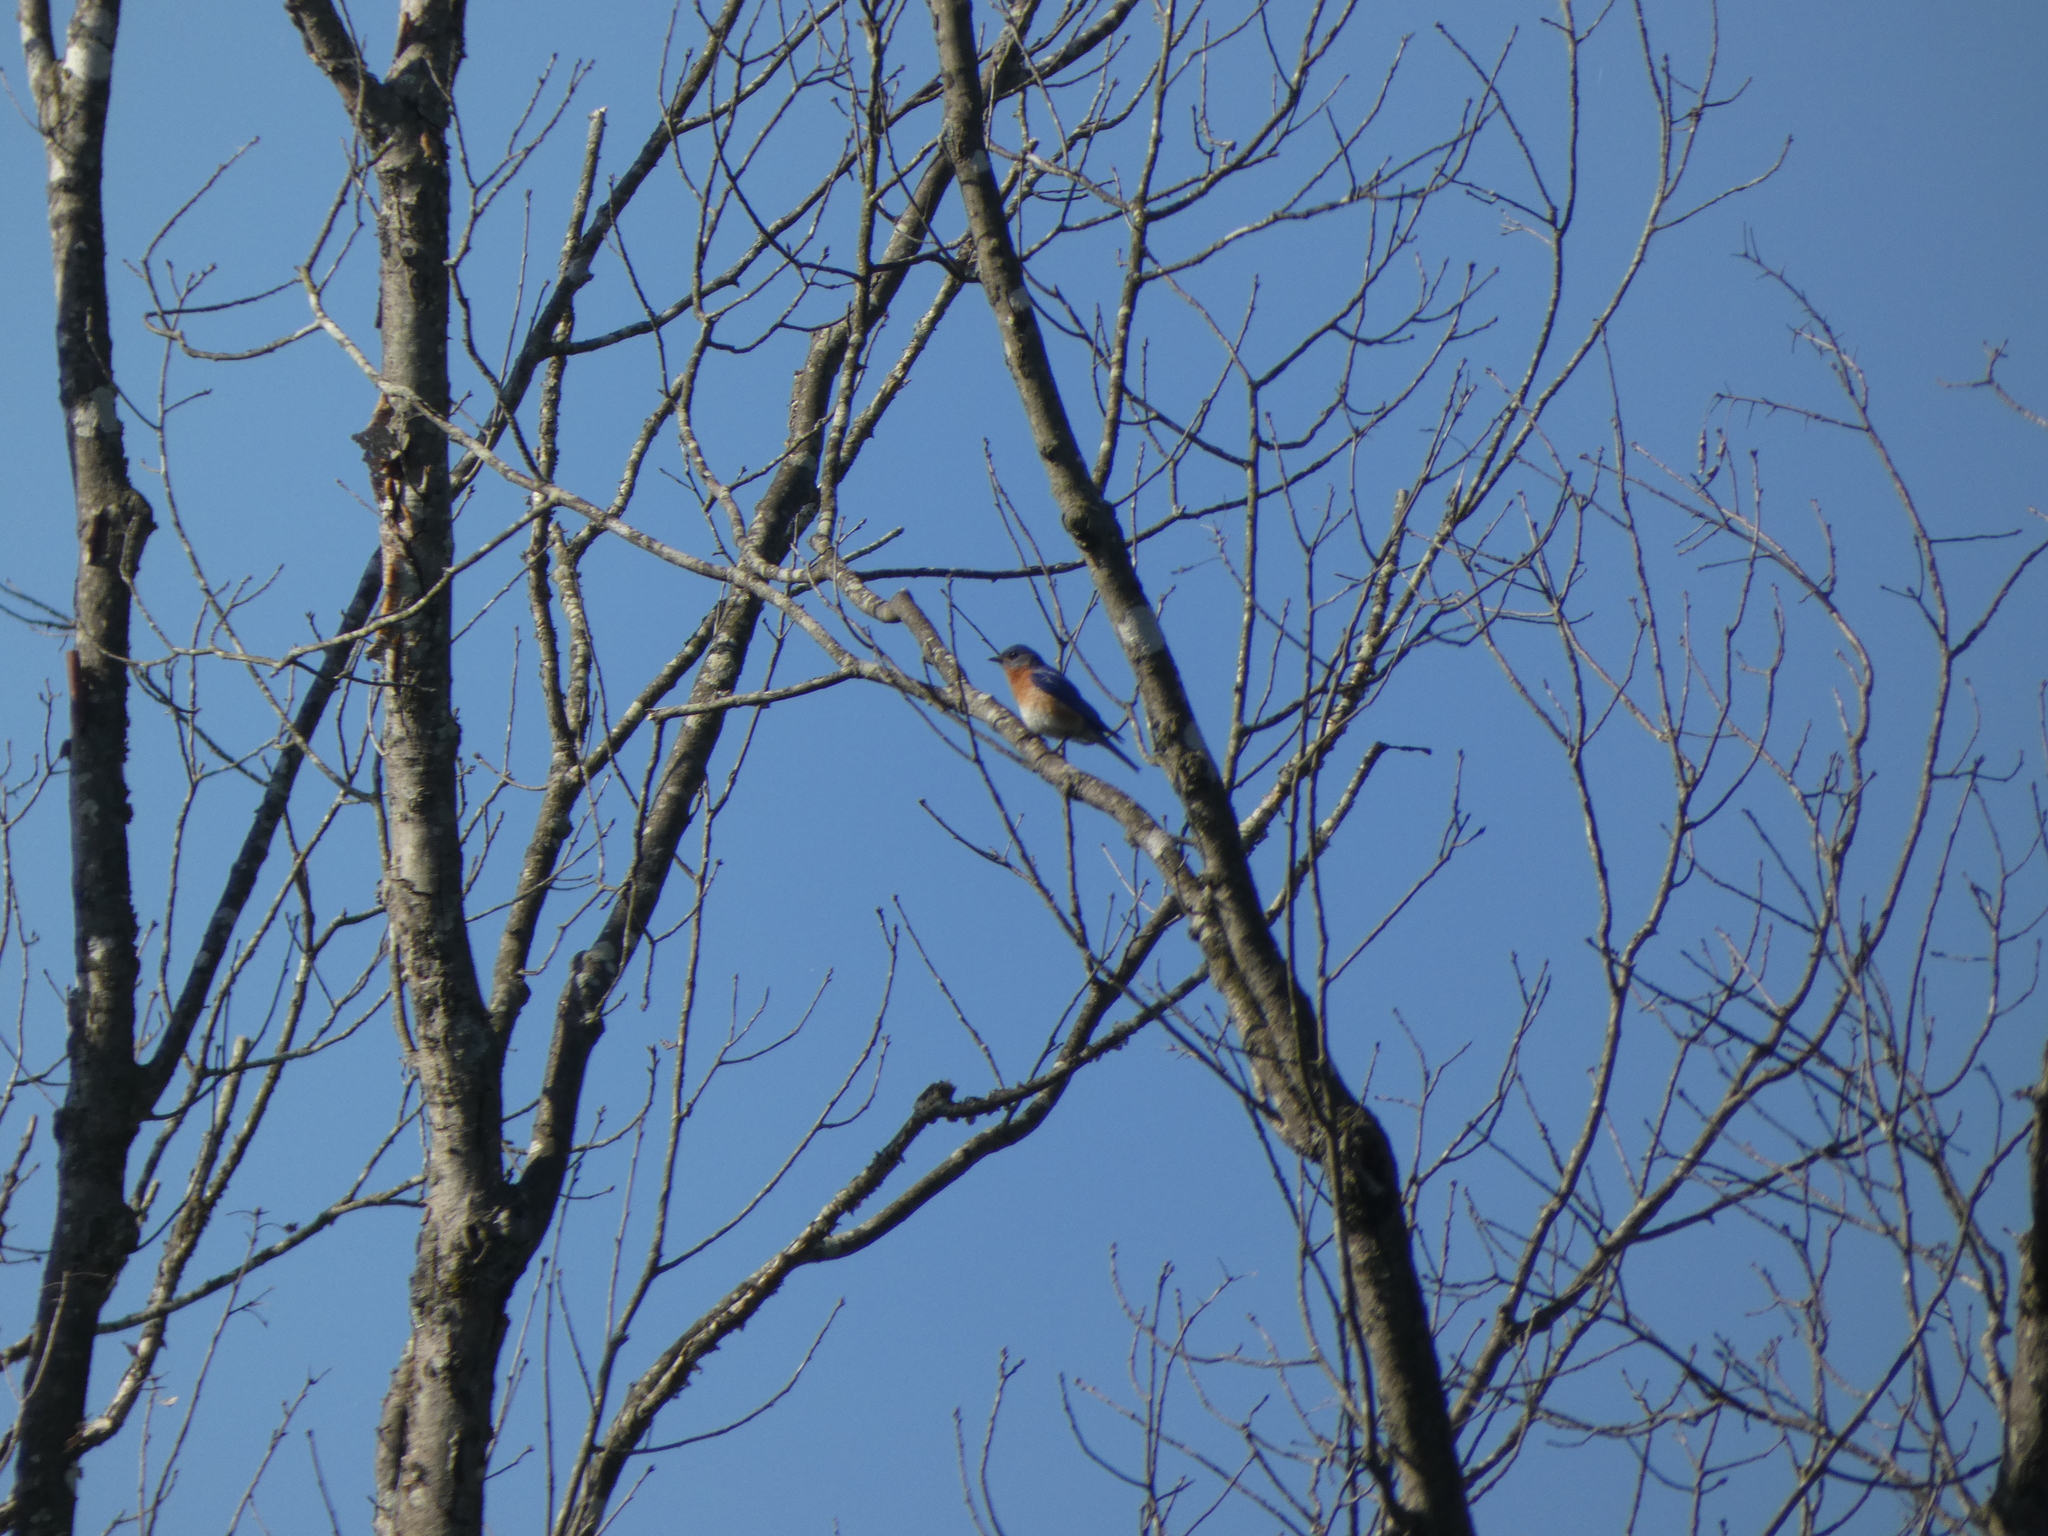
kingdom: Animalia
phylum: Chordata
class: Aves
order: Passeriformes
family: Turdidae
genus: Sialia
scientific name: Sialia sialis
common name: Eastern bluebird
